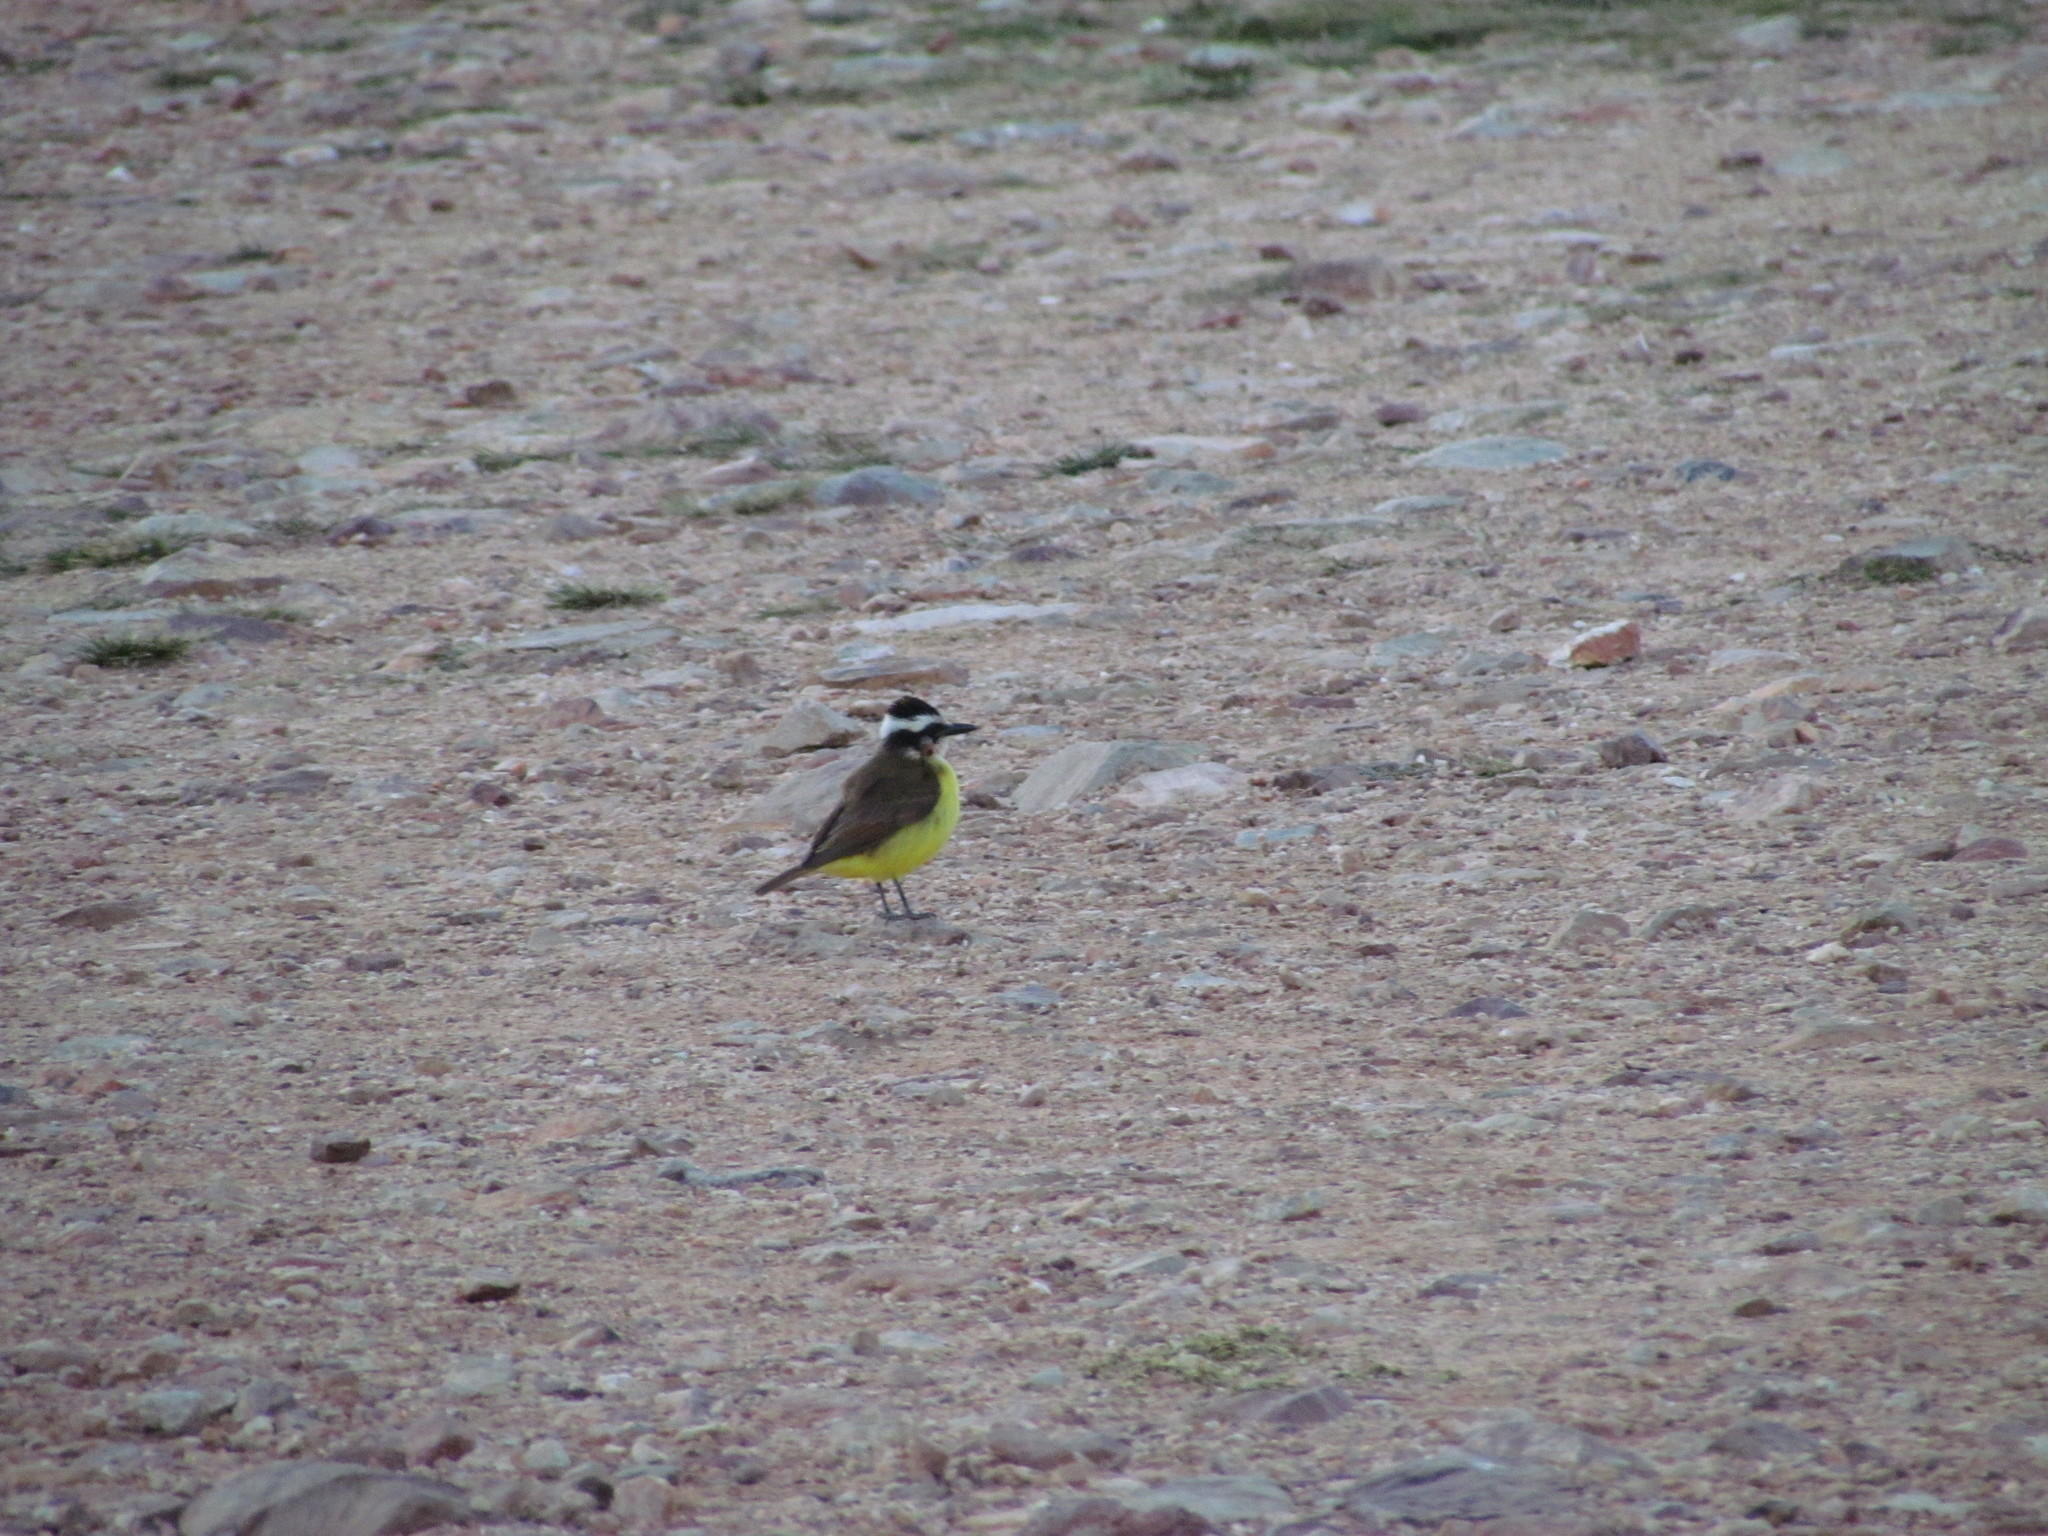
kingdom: Animalia
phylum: Chordata
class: Aves
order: Passeriformes
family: Tyrannidae
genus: Pitangus
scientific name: Pitangus sulphuratus
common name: Great kiskadee
